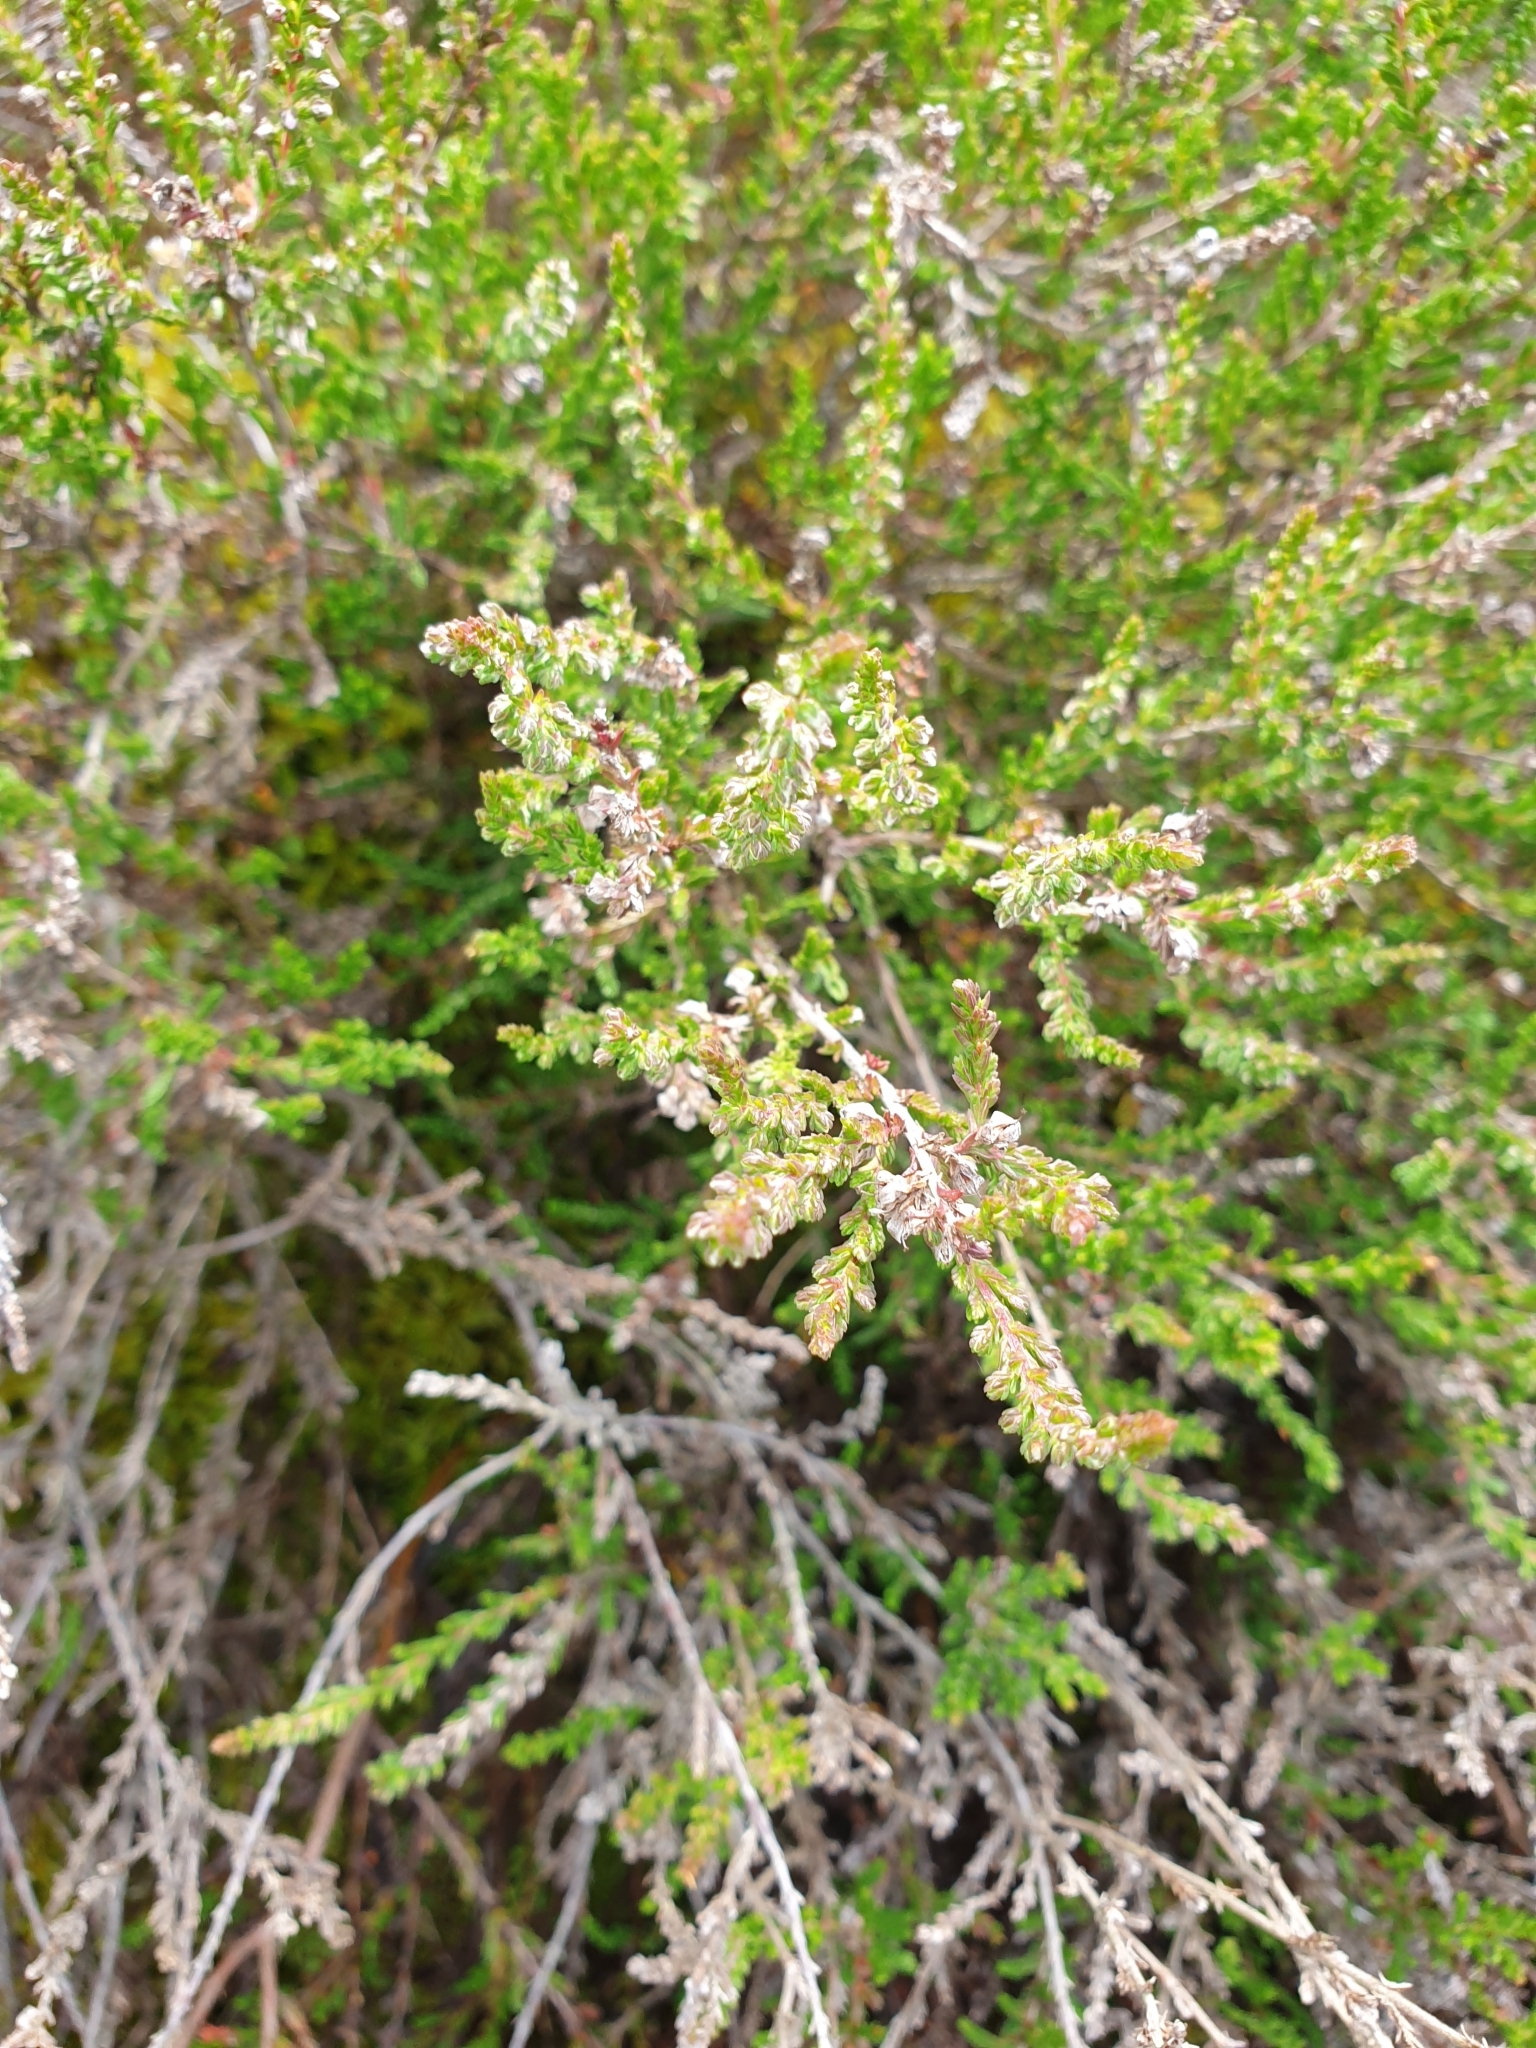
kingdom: Plantae
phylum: Tracheophyta
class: Magnoliopsida
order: Ericales
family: Ericaceae
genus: Calluna
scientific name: Calluna vulgaris
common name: Heather
